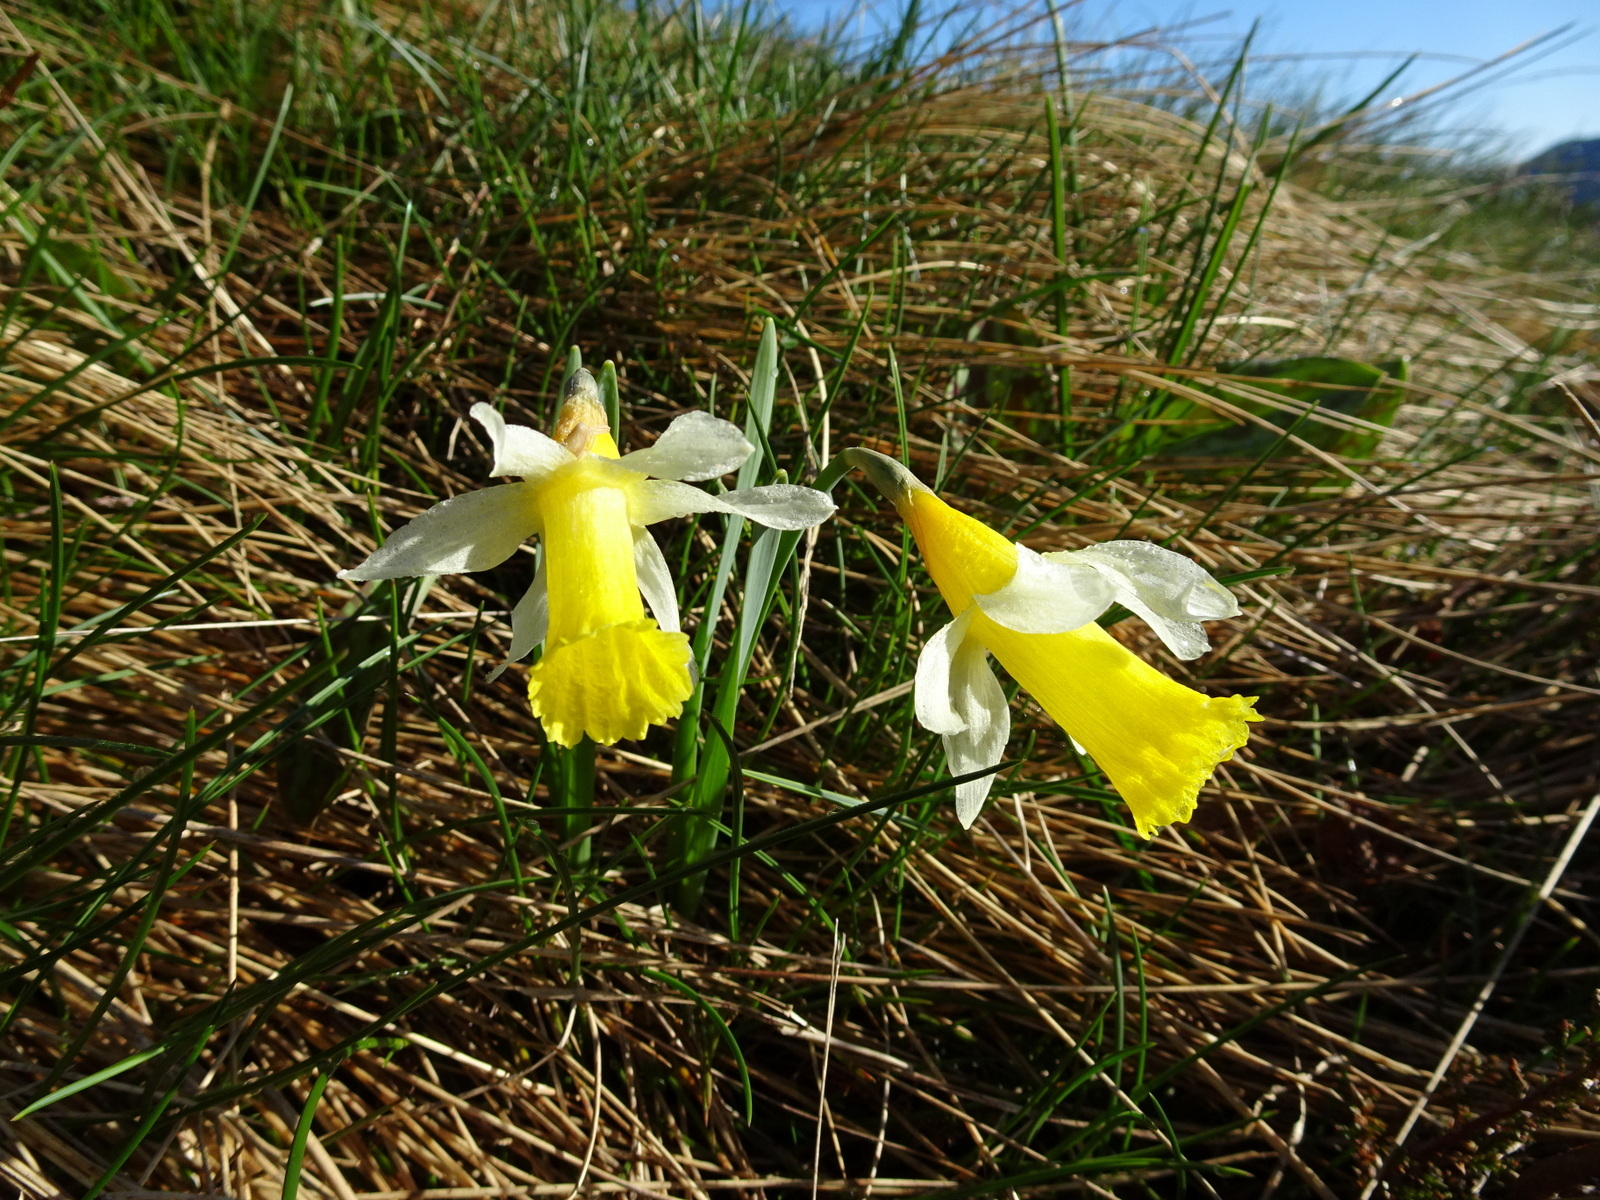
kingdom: Plantae
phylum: Tracheophyta
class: Liliopsida
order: Asparagales
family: Amaryllidaceae
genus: Narcissus
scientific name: Narcissus pseudonarcissus
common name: Daffodil
